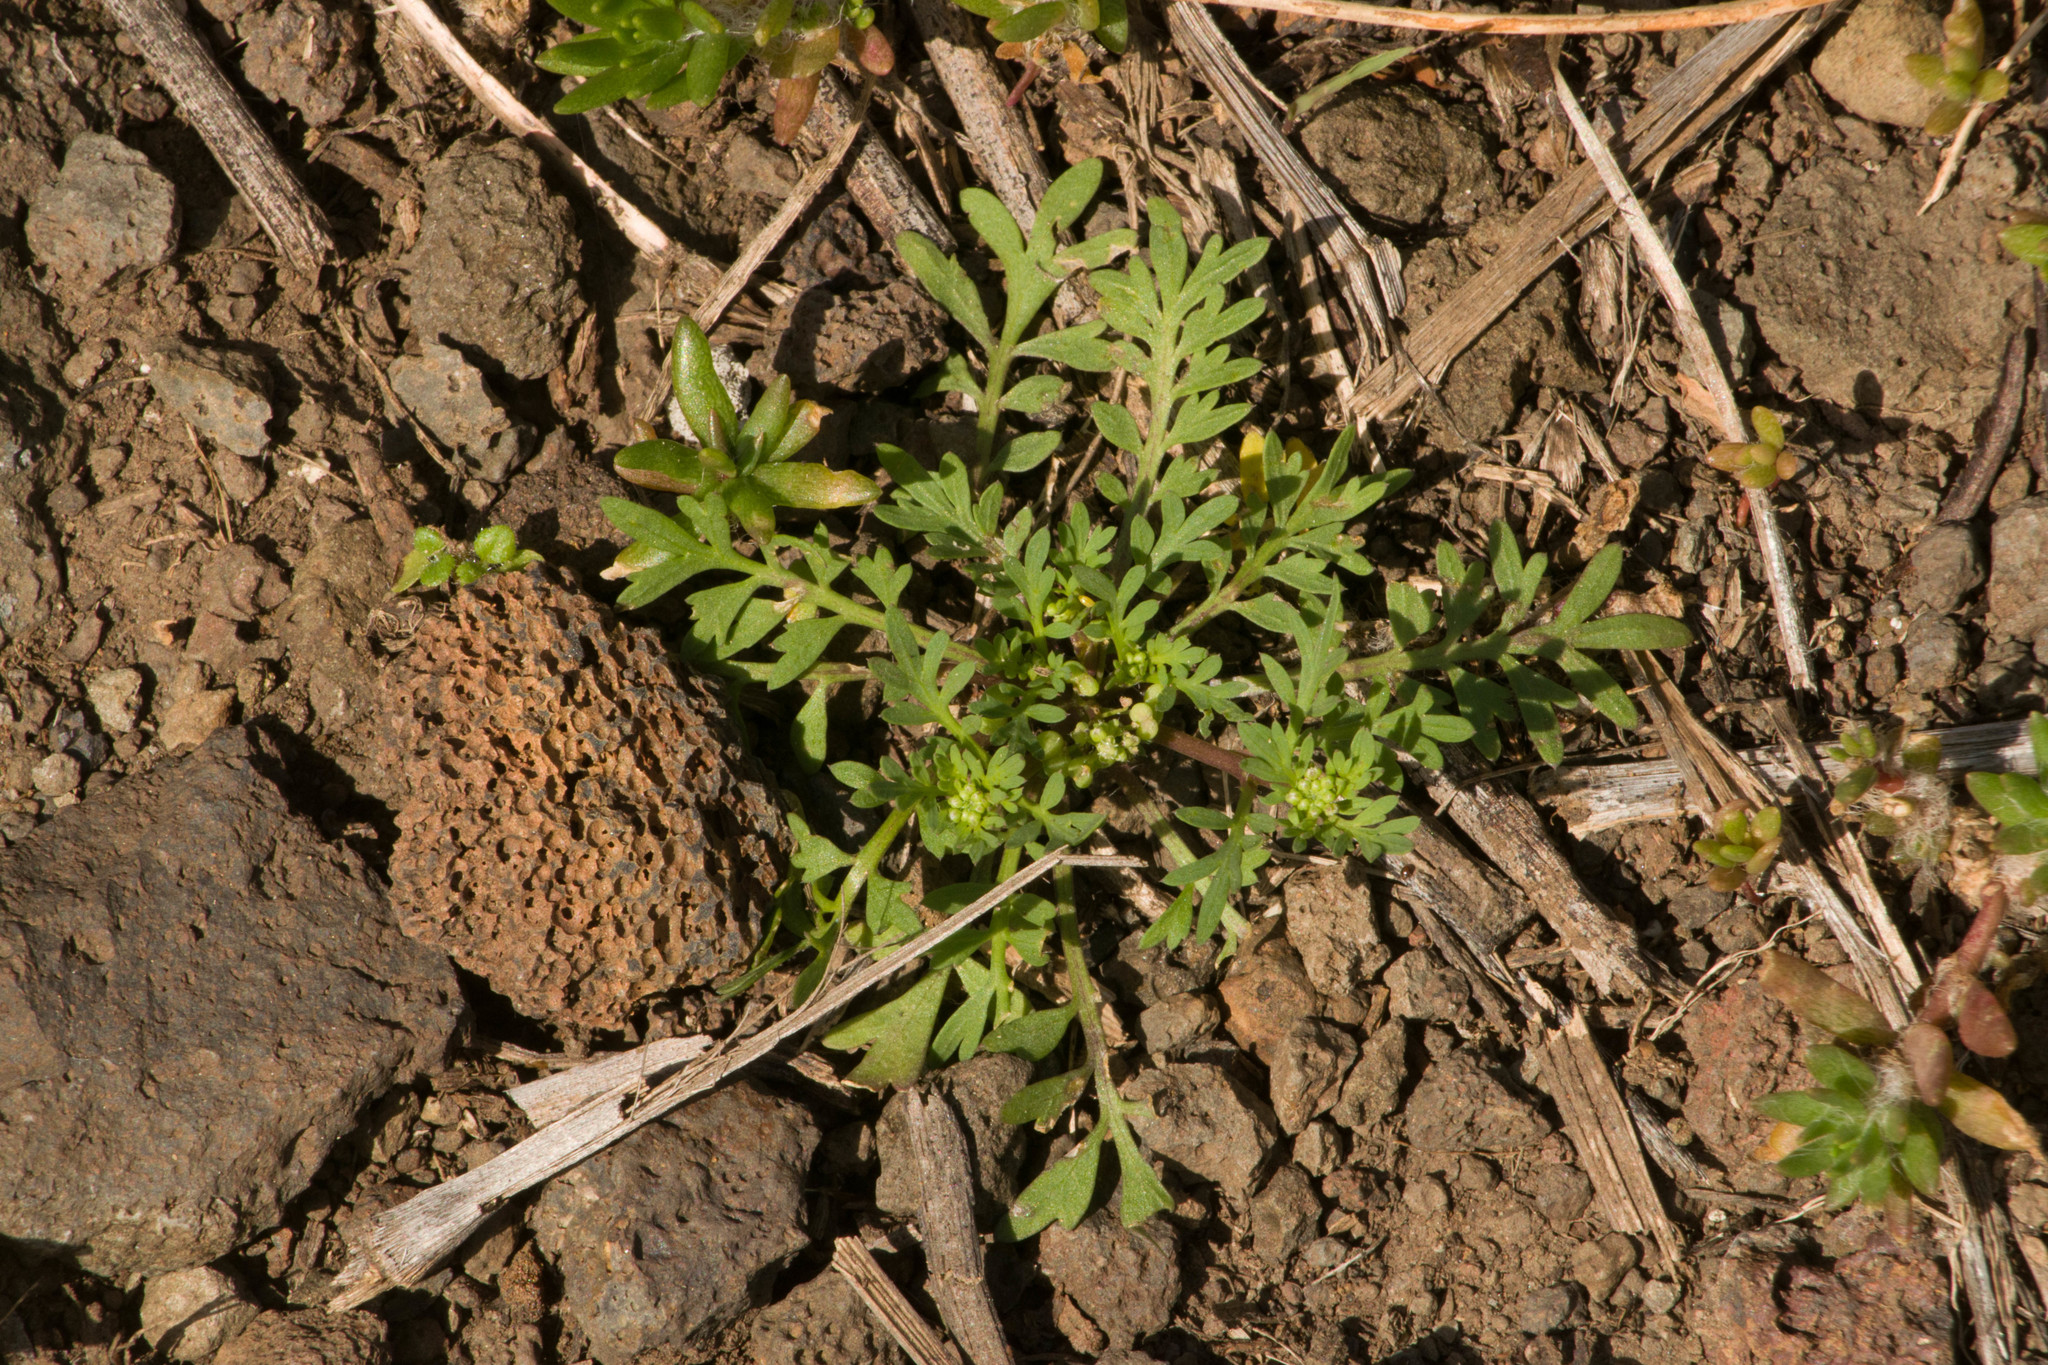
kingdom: Plantae
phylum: Tracheophyta
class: Magnoliopsida
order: Brassicales
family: Brassicaceae
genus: Lepidium
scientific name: Lepidium didymum
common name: Lesser swinecress
